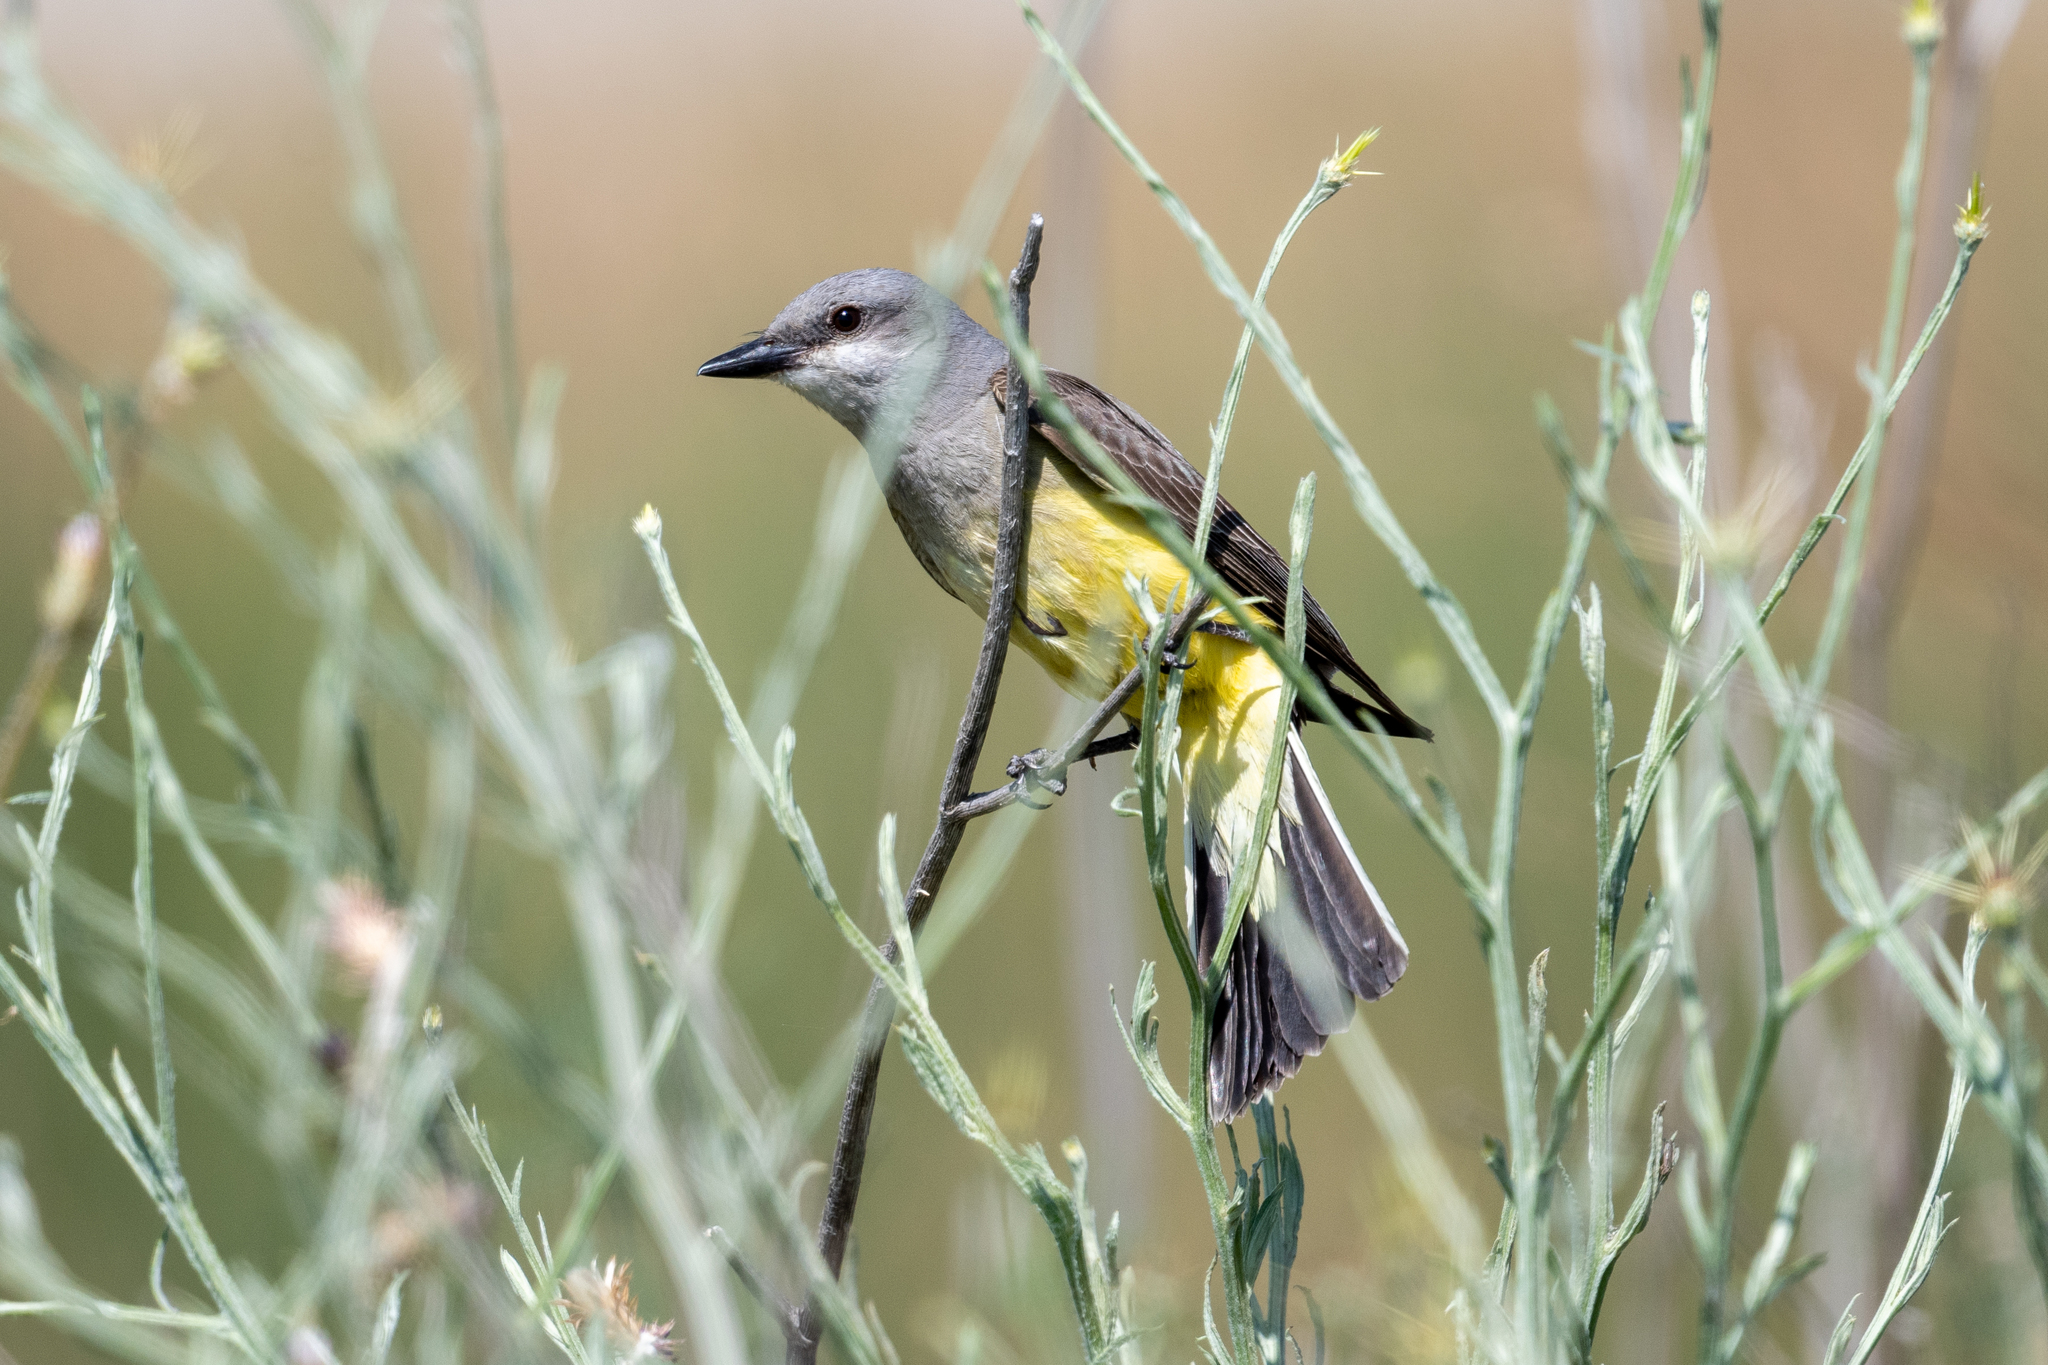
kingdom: Animalia
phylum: Chordata
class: Aves
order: Passeriformes
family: Tyrannidae
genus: Tyrannus
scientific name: Tyrannus verticalis
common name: Western kingbird
